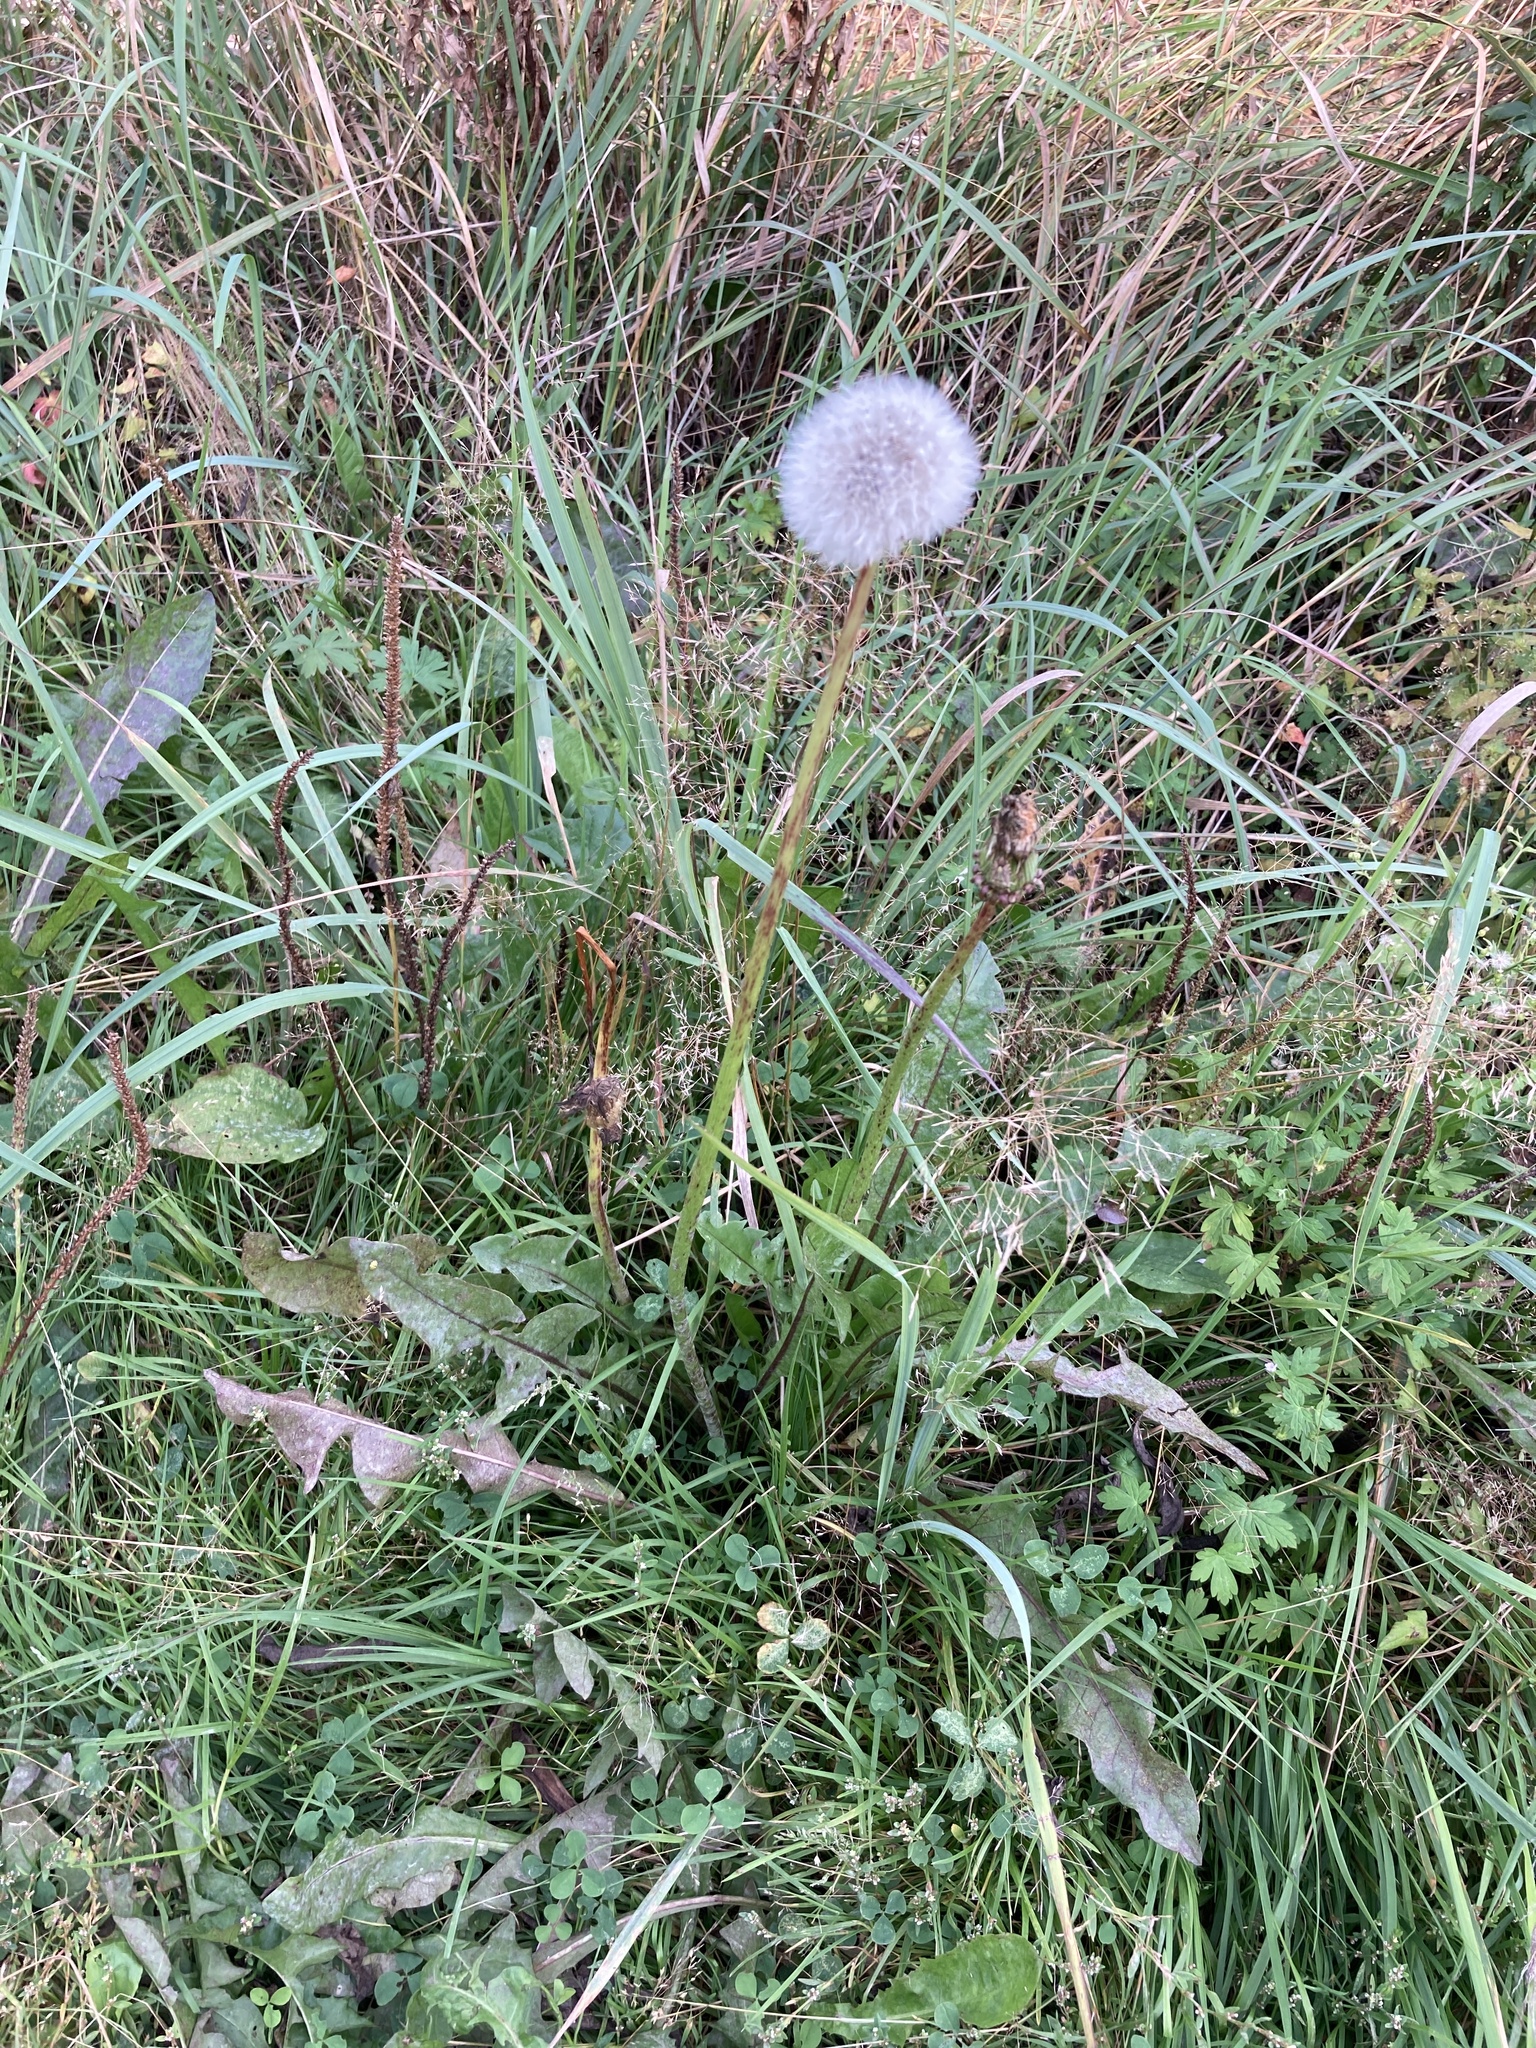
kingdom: Plantae
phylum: Tracheophyta
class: Magnoliopsida
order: Asterales
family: Asteraceae
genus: Taraxacum
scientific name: Taraxacum officinale
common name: Common dandelion
